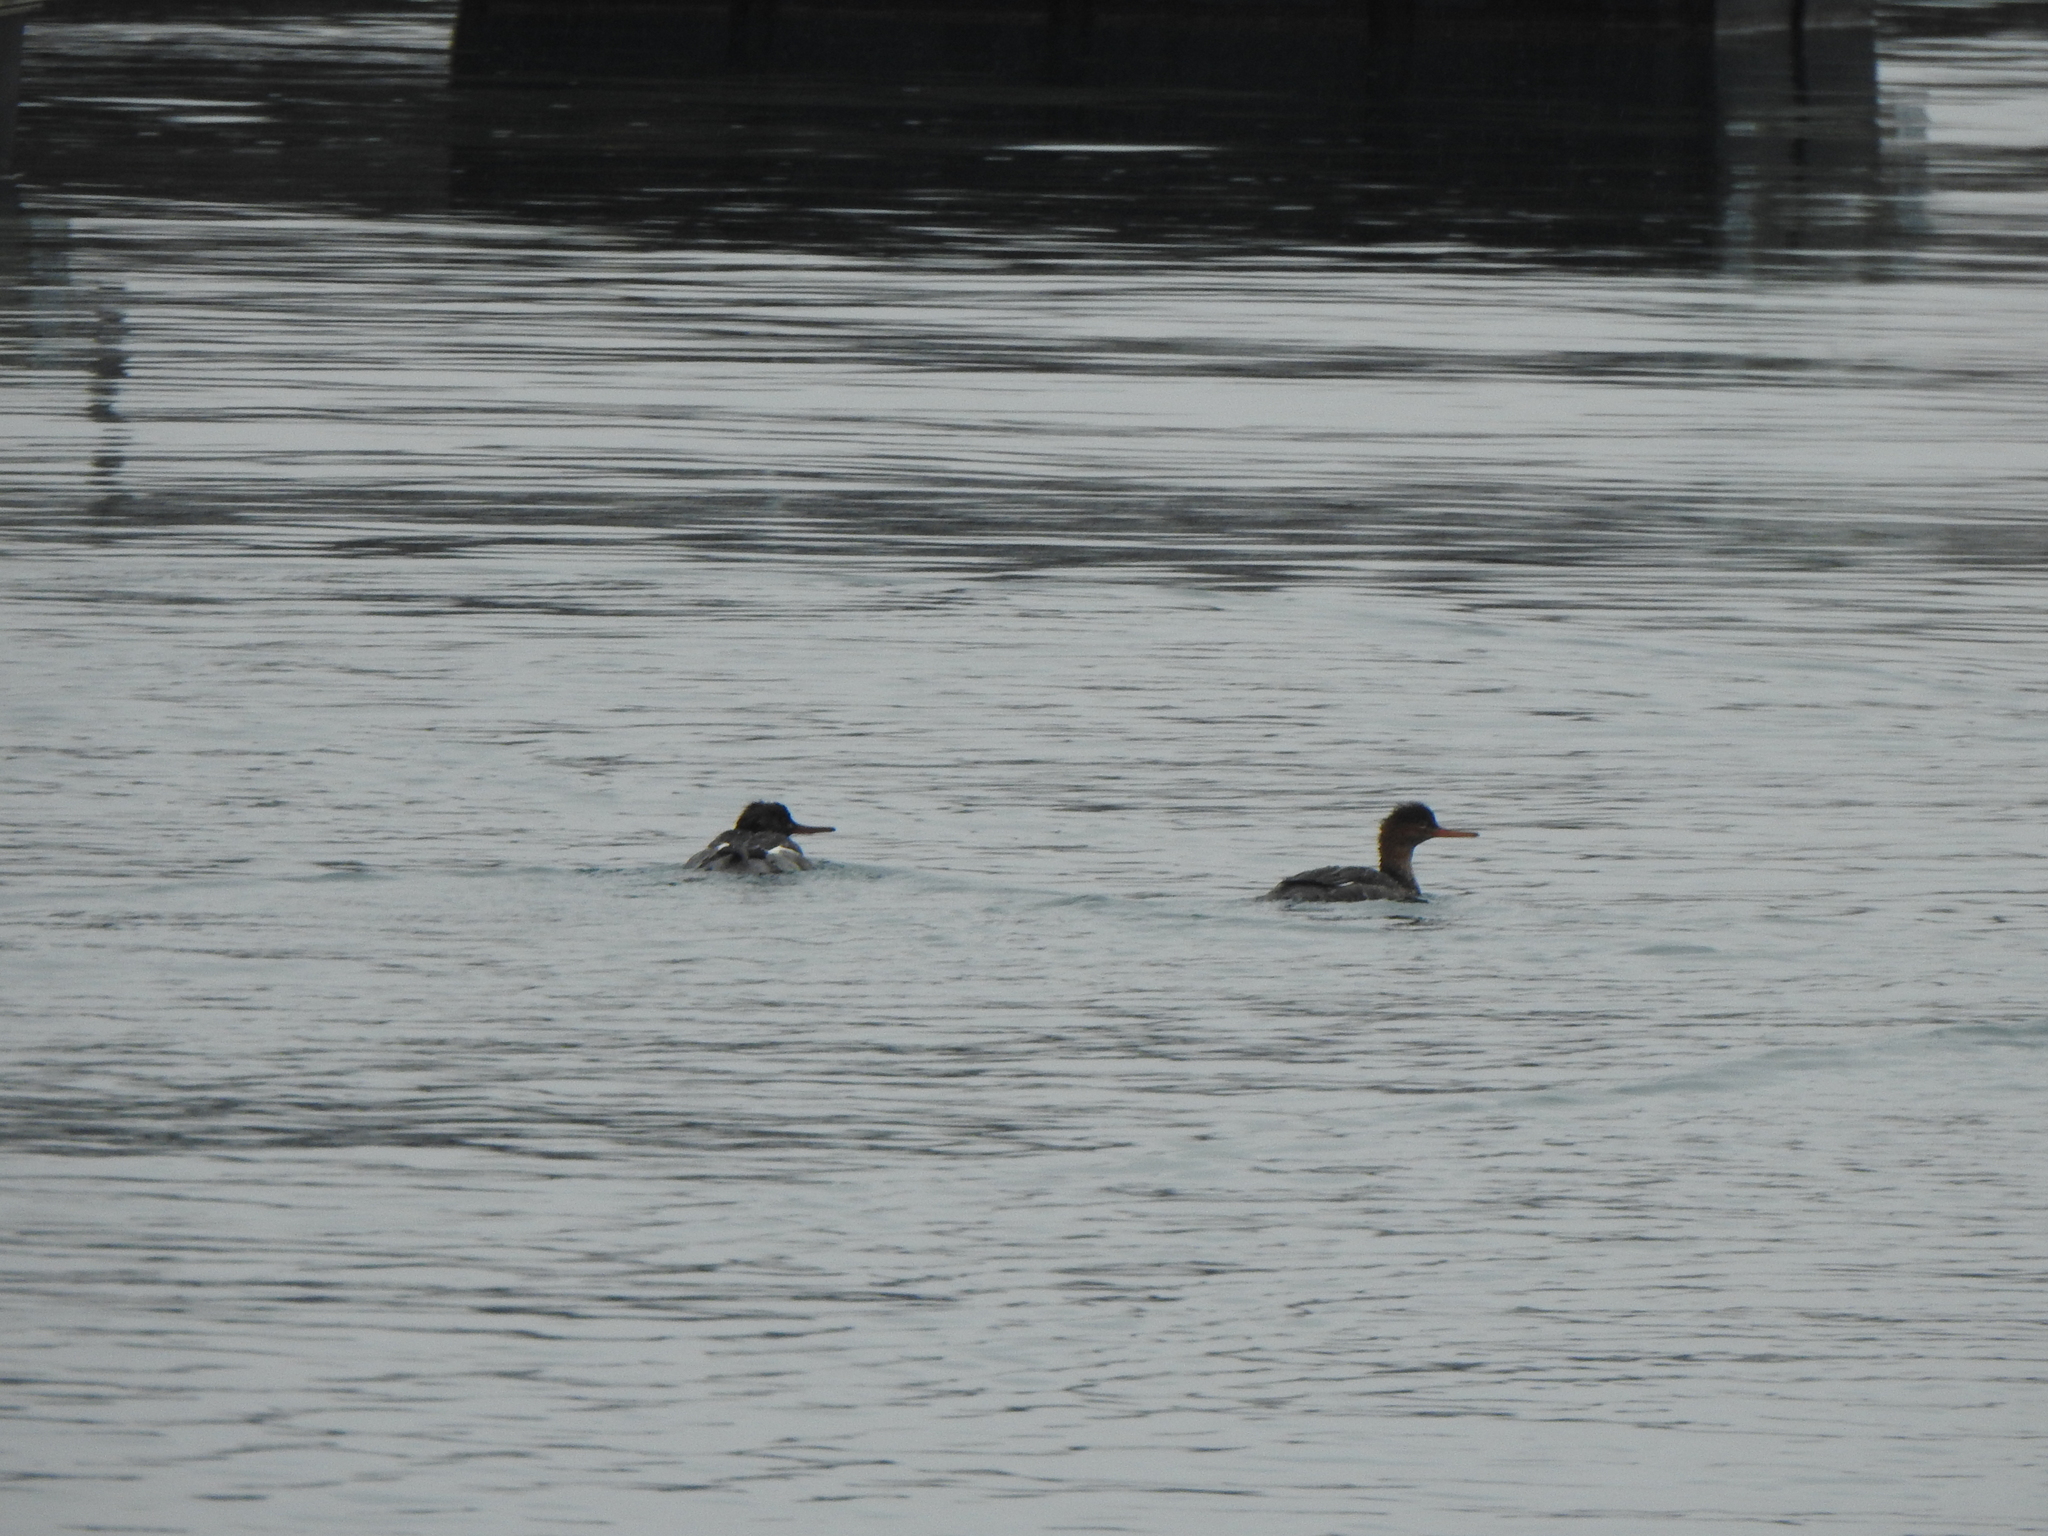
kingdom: Animalia
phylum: Chordata
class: Aves
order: Anseriformes
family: Anatidae
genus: Mergus
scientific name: Mergus serrator
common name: Red-breasted merganser
